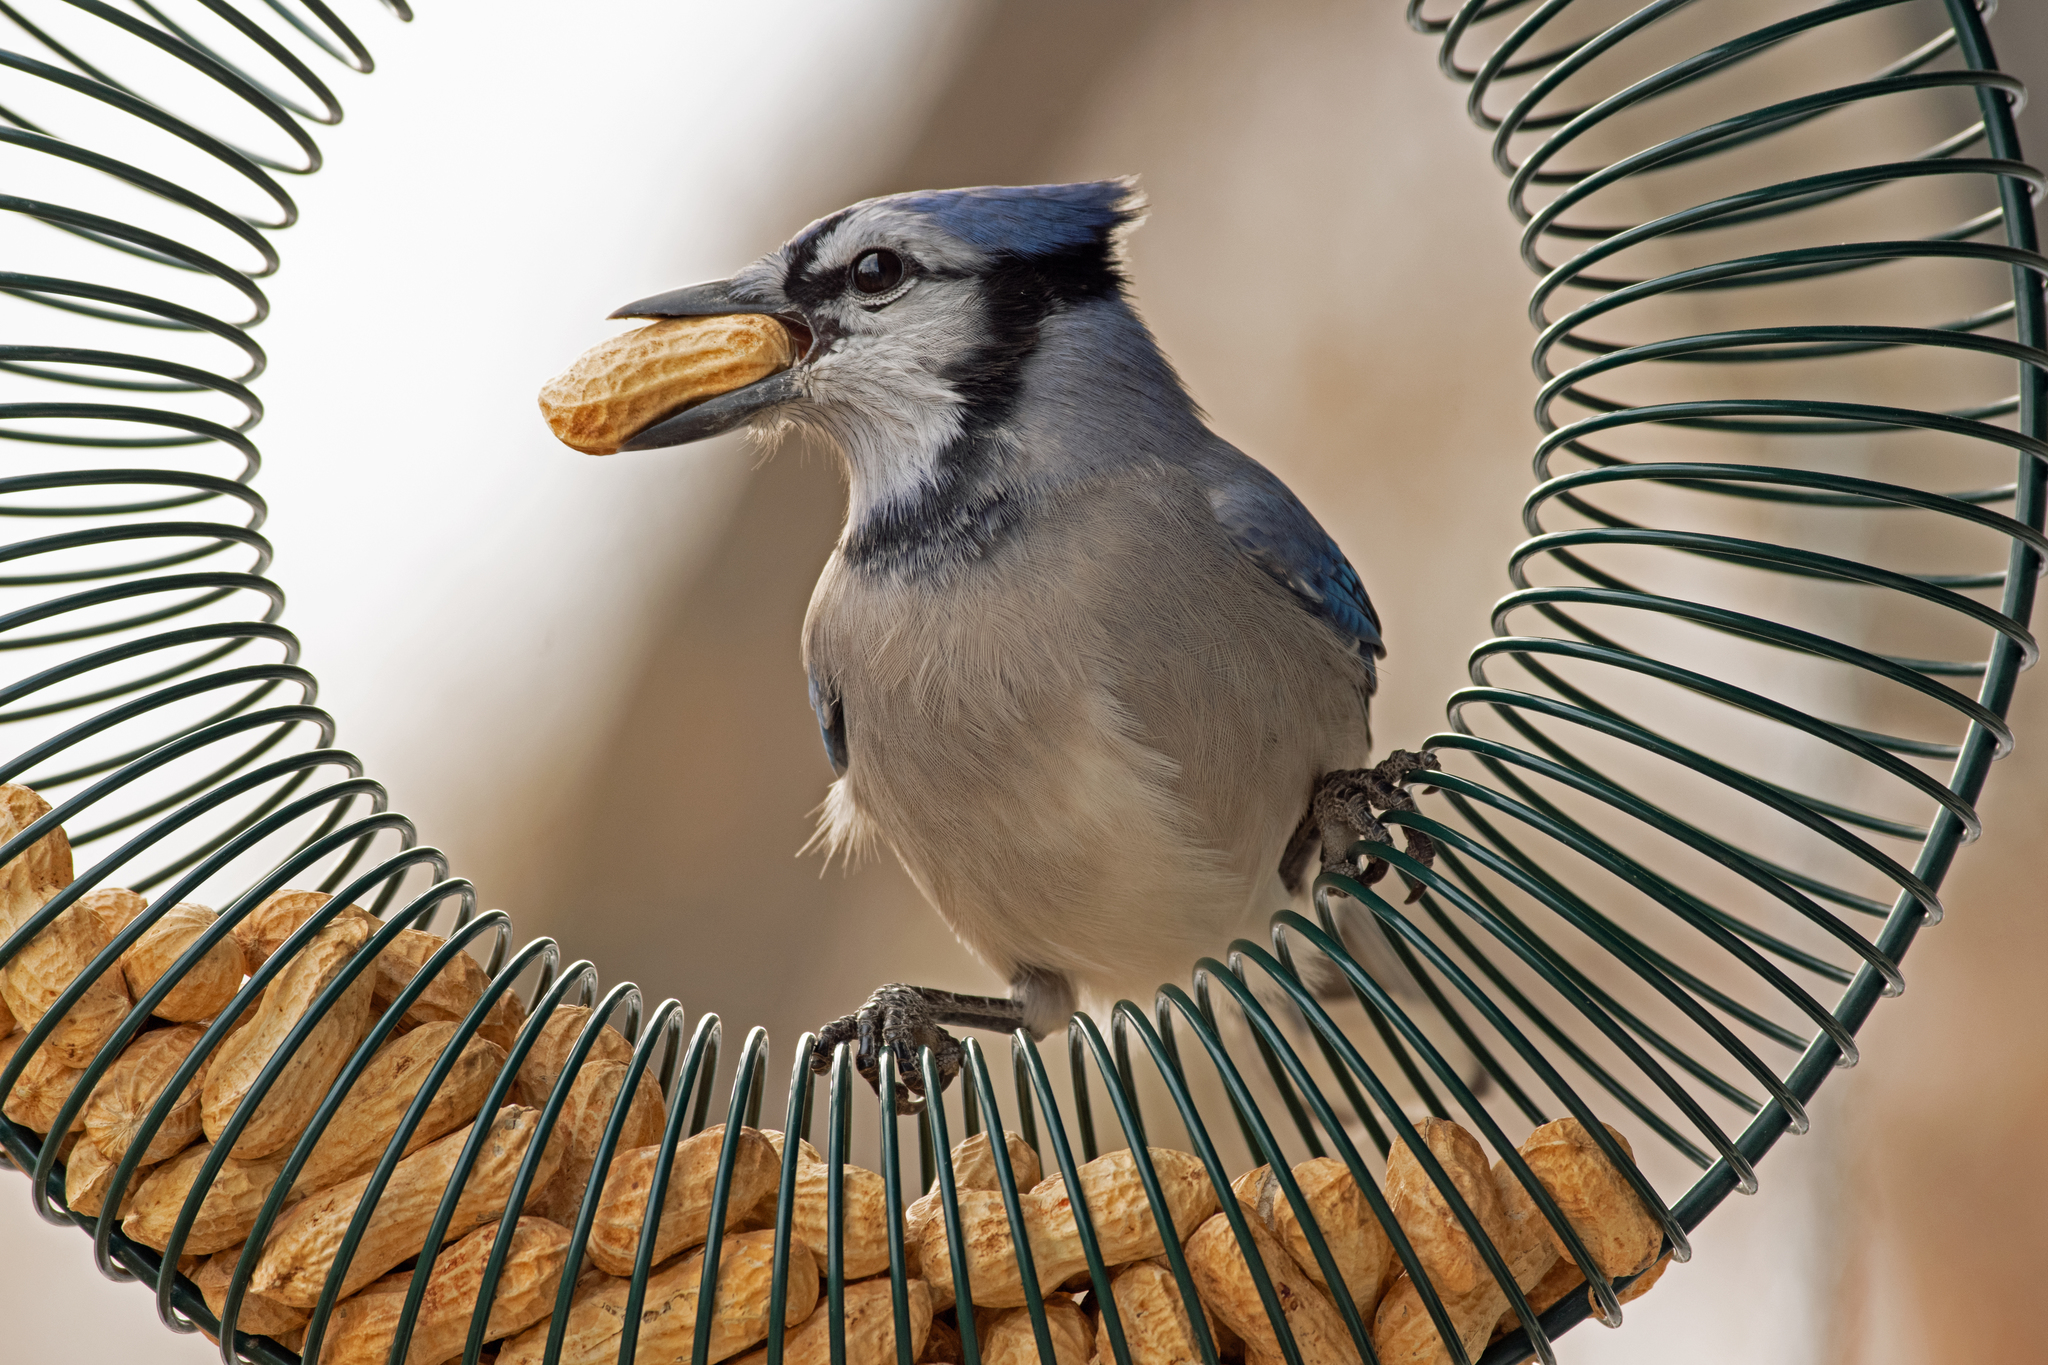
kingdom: Animalia
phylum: Chordata
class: Aves
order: Passeriformes
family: Corvidae
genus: Cyanocitta
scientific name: Cyanocitta cristata
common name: Blue jay
